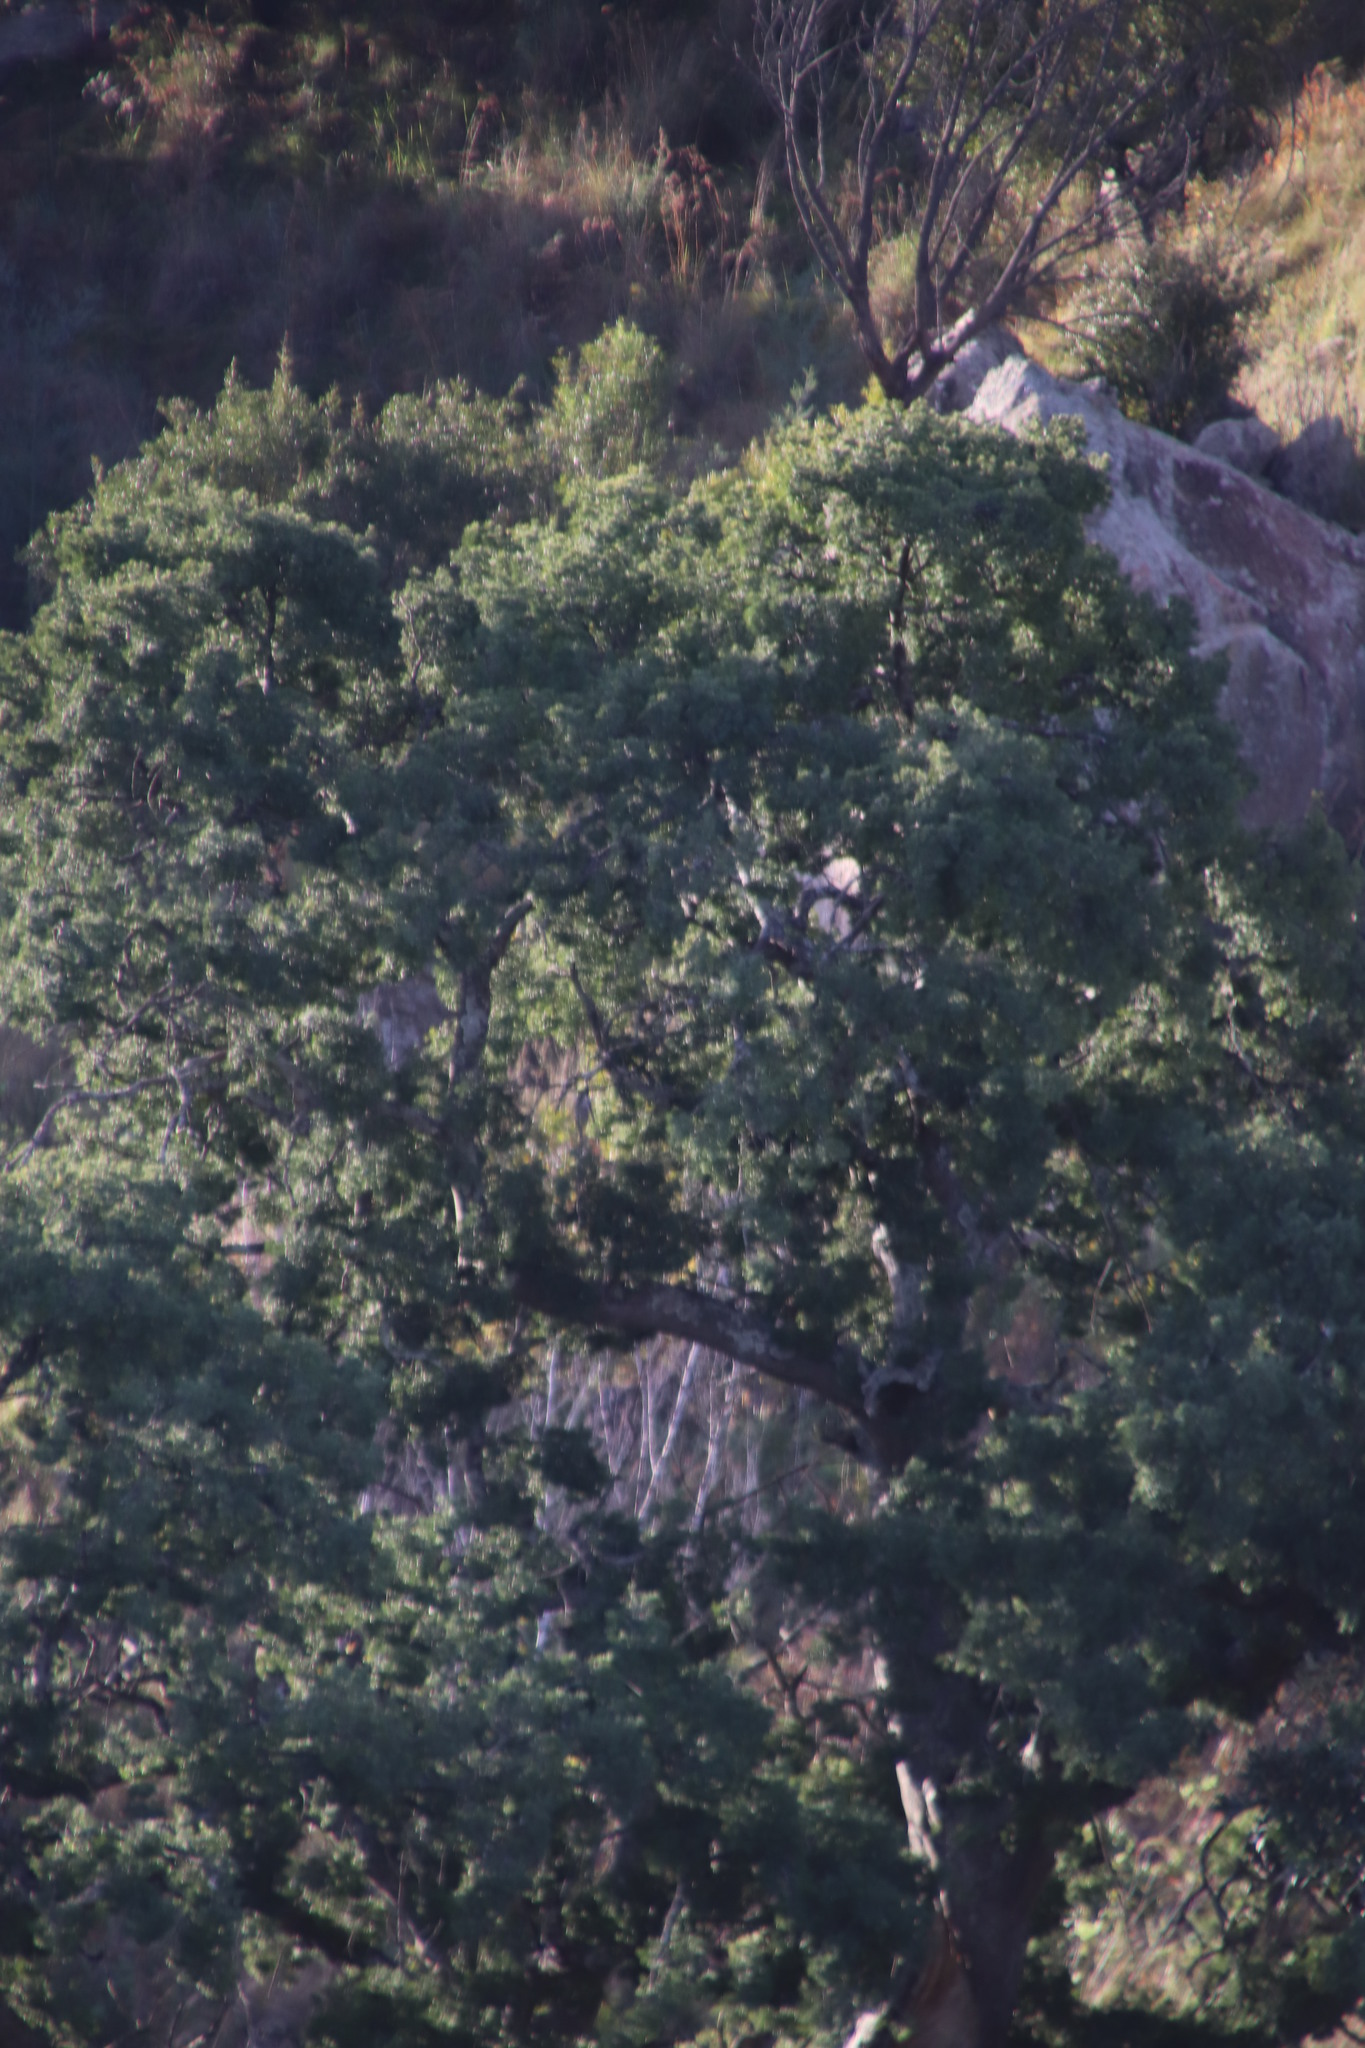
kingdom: Plantae
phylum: Tracheophyta
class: Pinopsida
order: Pinales
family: Podocarpaceae
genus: Afrocarpus
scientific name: Afrocarpus falcatus
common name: Bastard yellowwood
